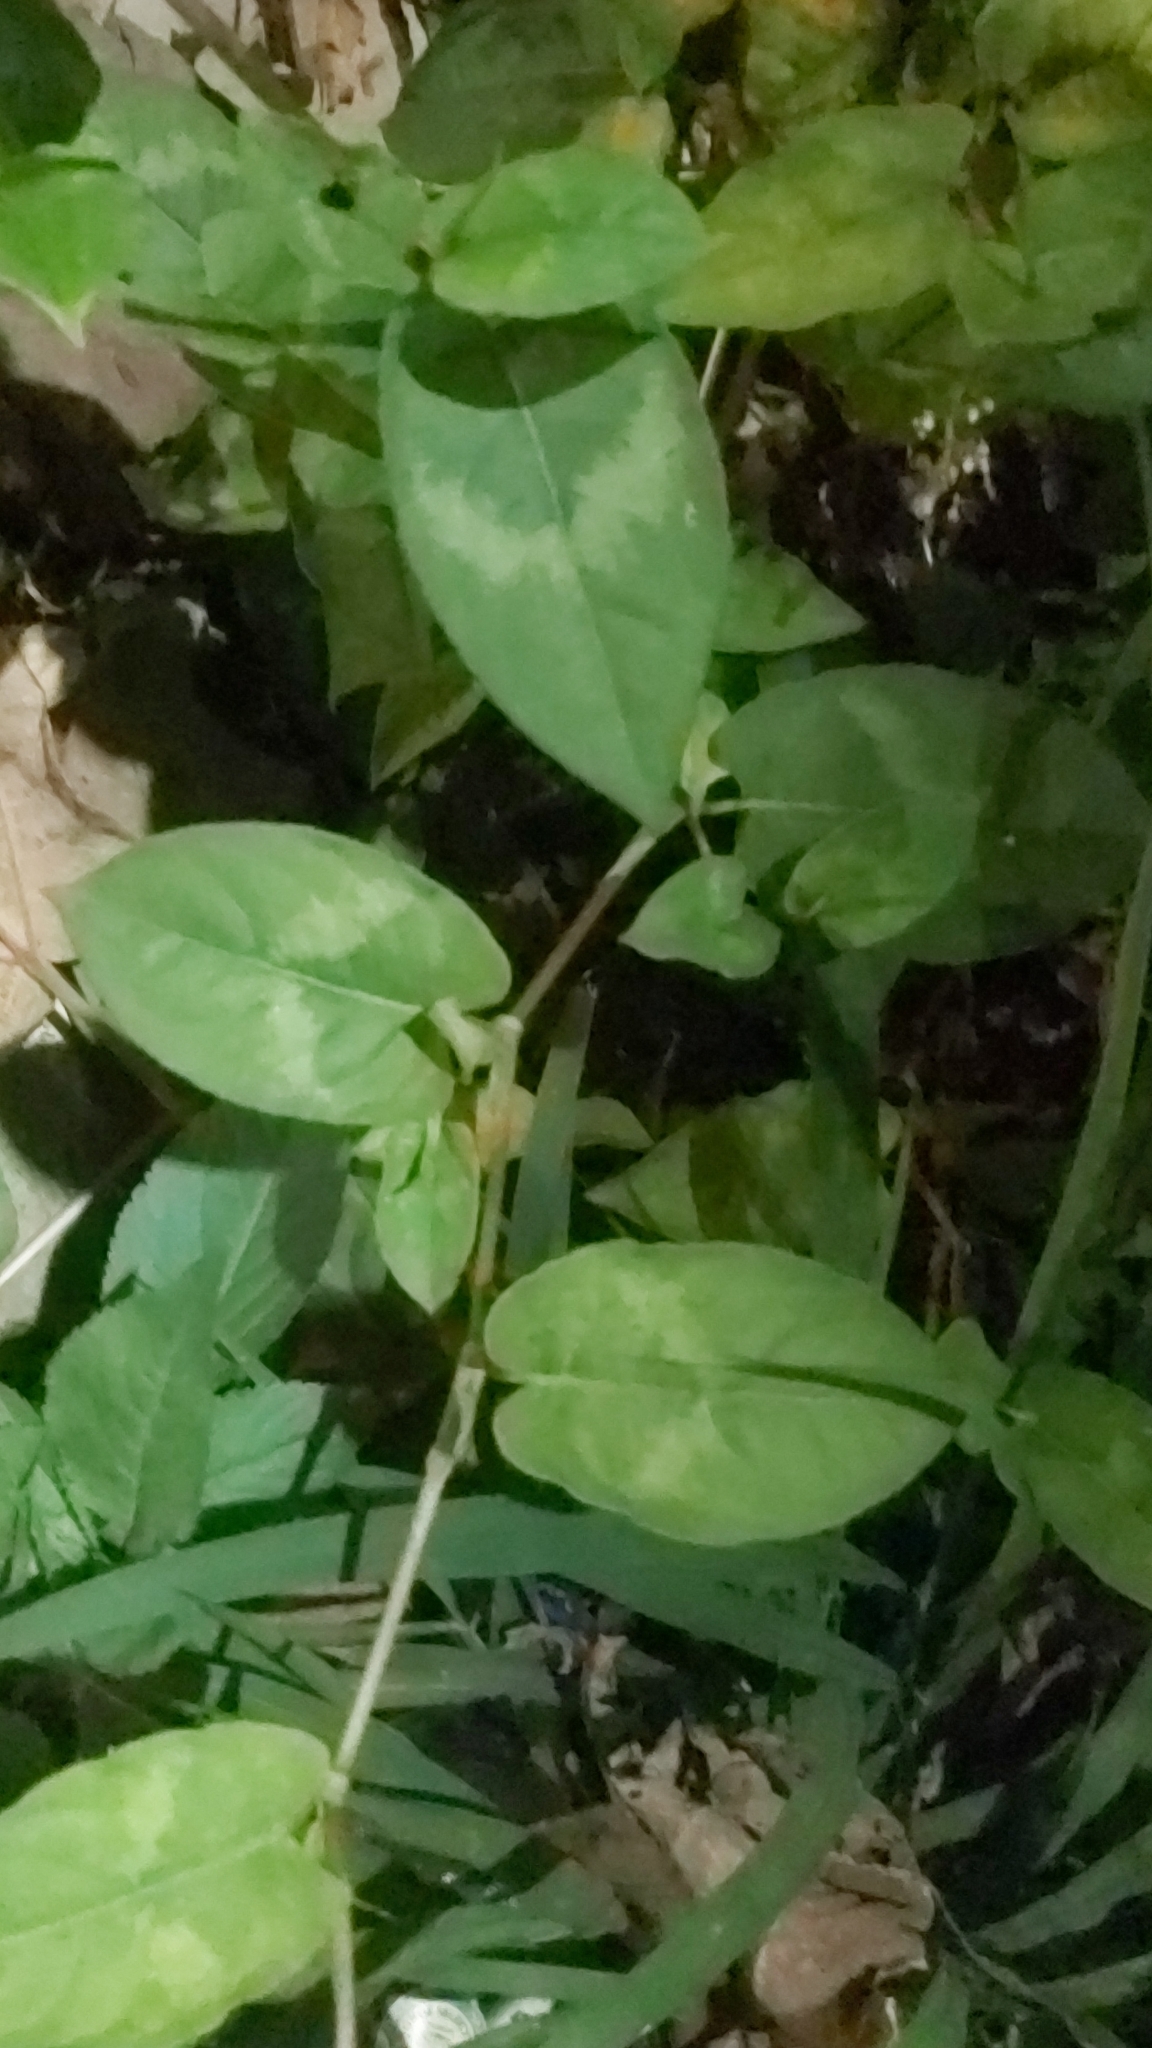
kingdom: Plantae
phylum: Tracheophyta
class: Magnoliopsida
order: Caryophyllales
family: Polygonaceae
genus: Persicaria
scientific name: Persicaria chinensis
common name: Chinese knotweed
